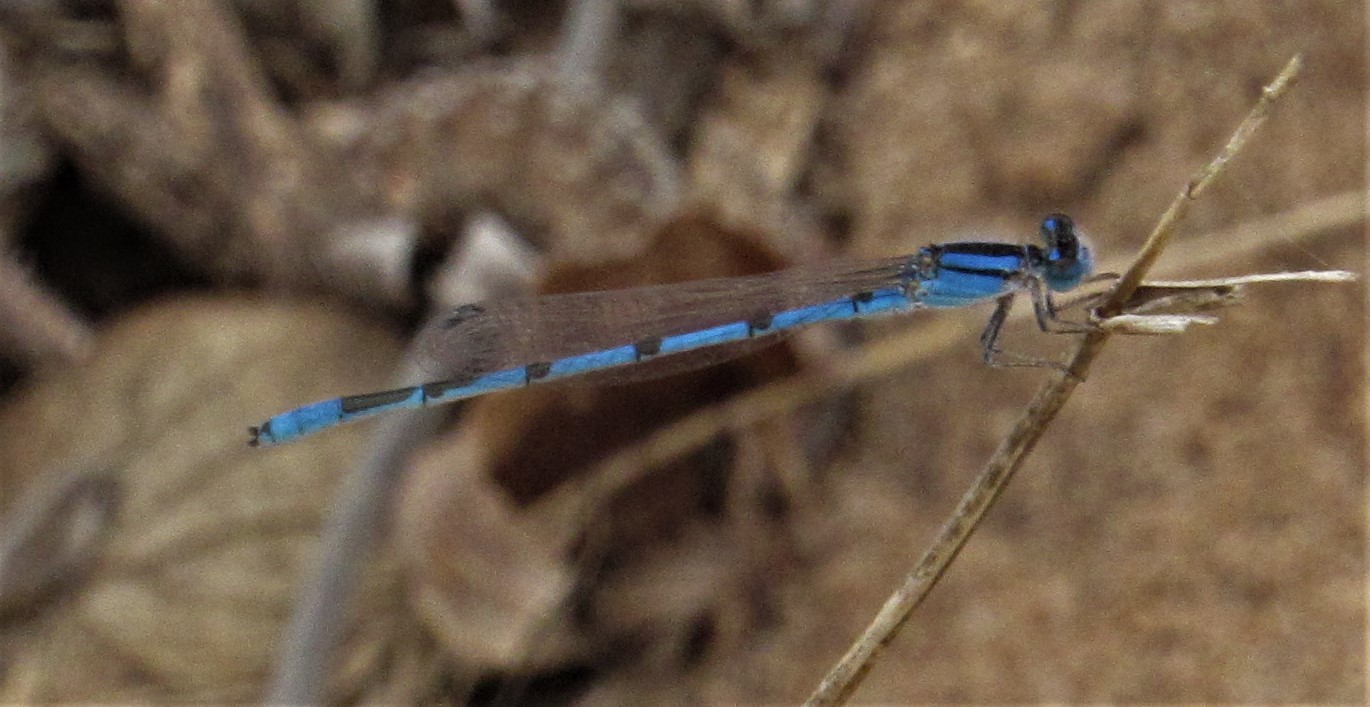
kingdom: Animalia
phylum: Arthropoda
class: Insecta
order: Odonata
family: Coenagrionidae
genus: Enallagma
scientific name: Enallagma civile
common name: Damselfly
